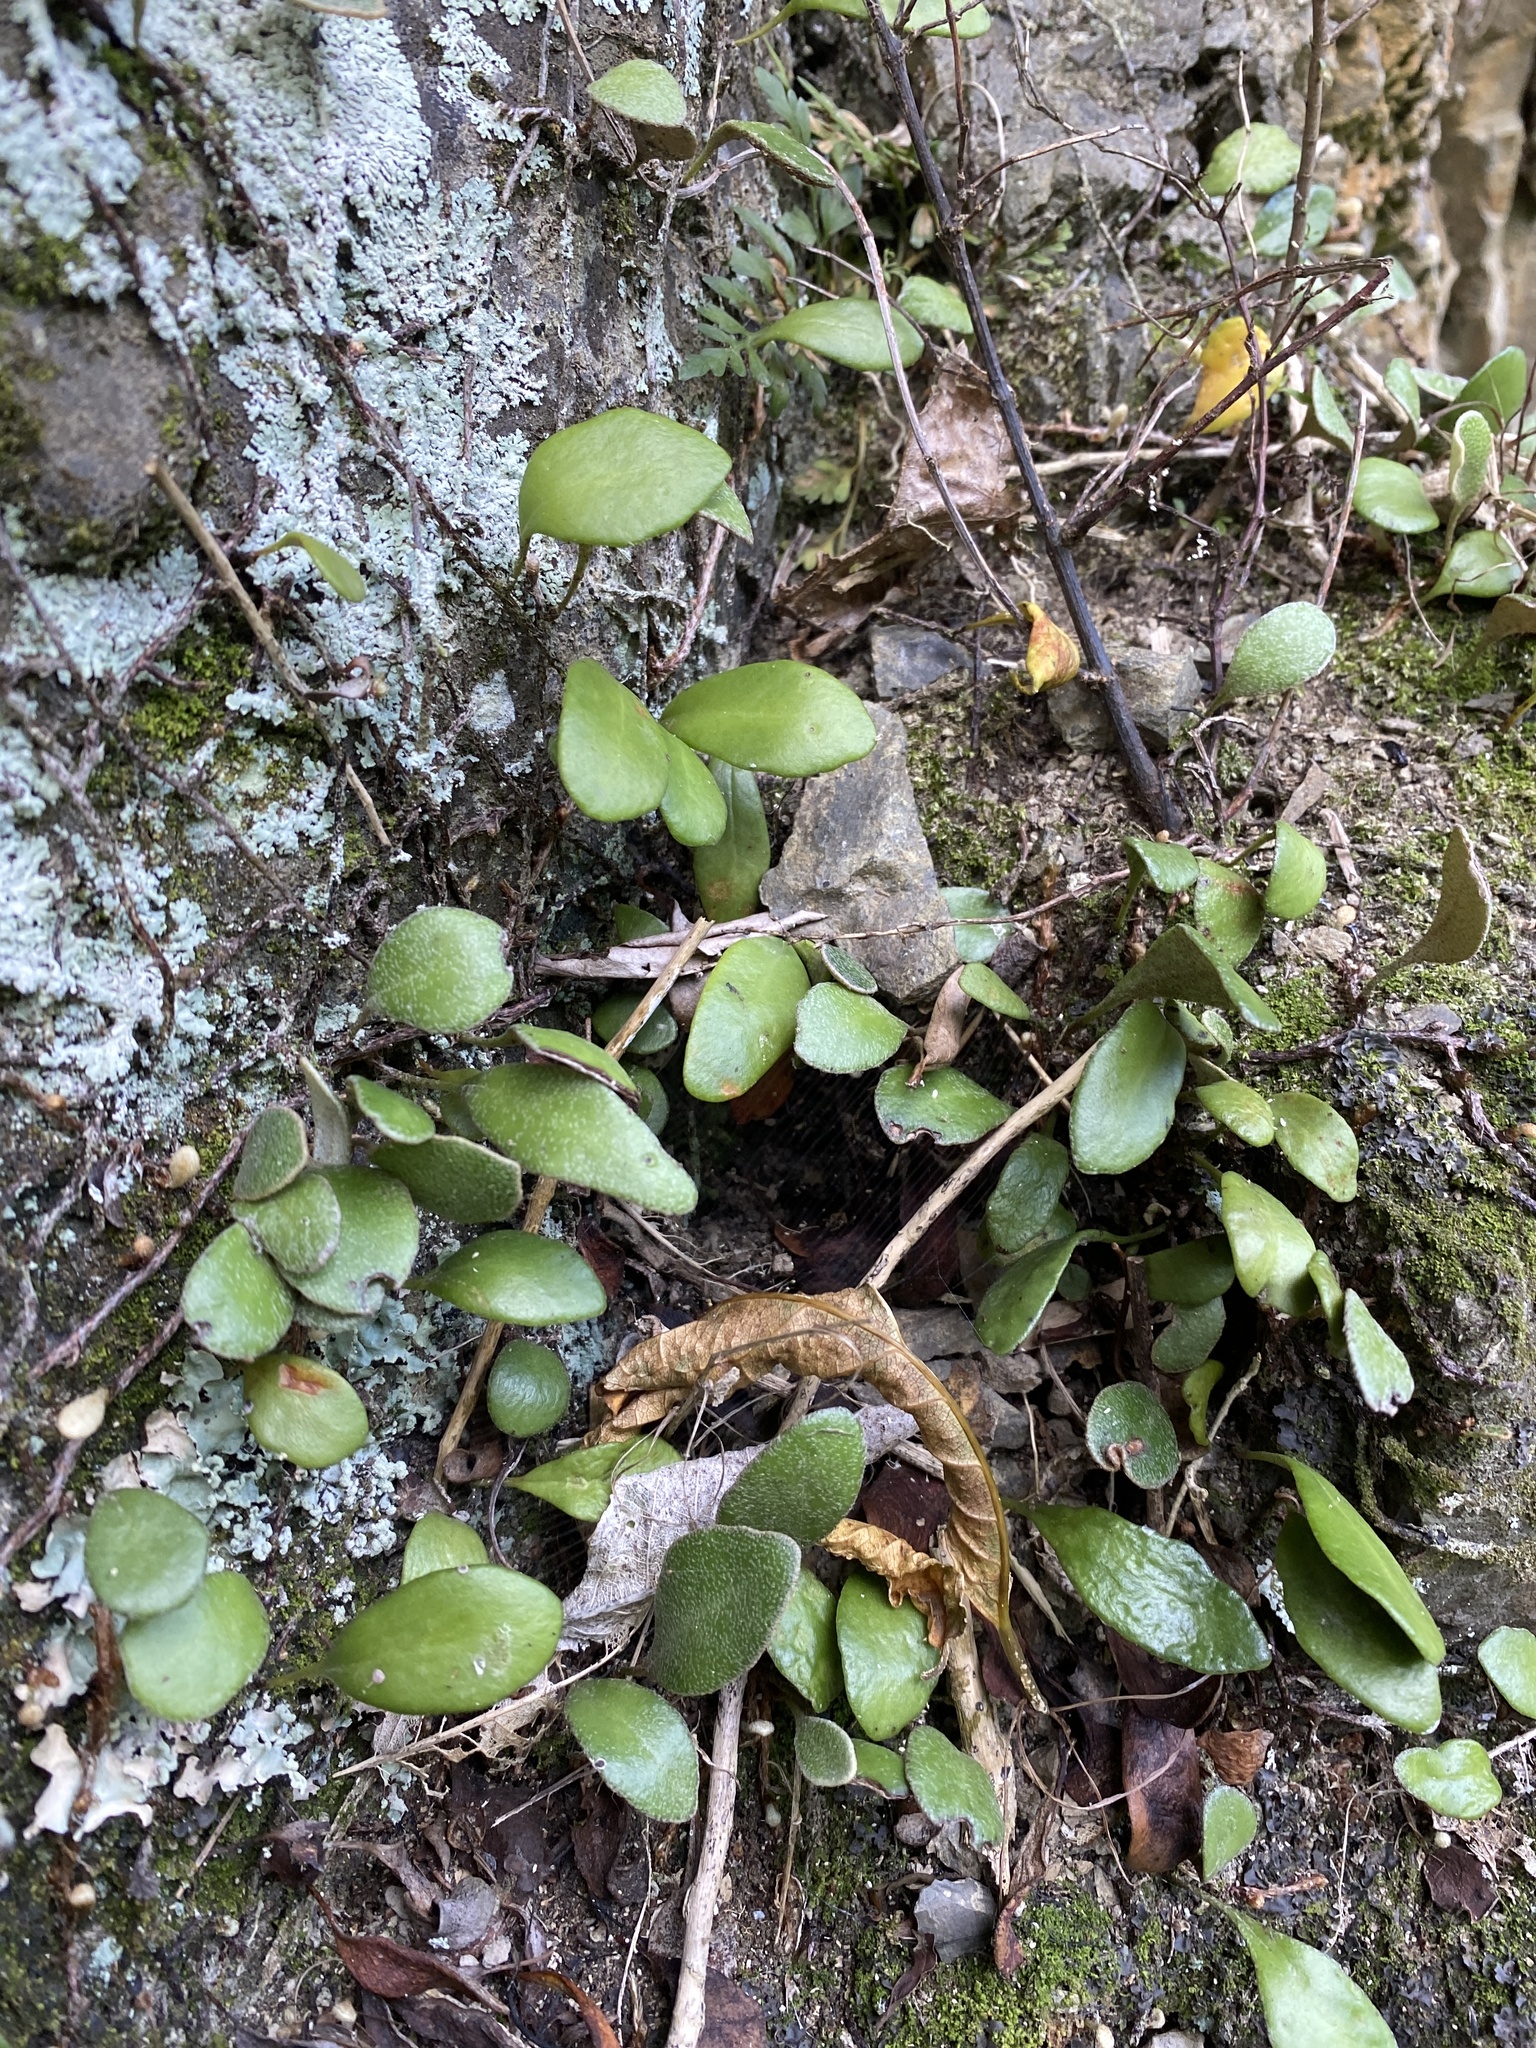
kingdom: Plantae
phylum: Tracheophyta
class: Polypodiopsida
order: Polypodiales
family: Polypodiaceae
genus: Pyrrosia
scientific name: Pyrrosia eleagnifolia
